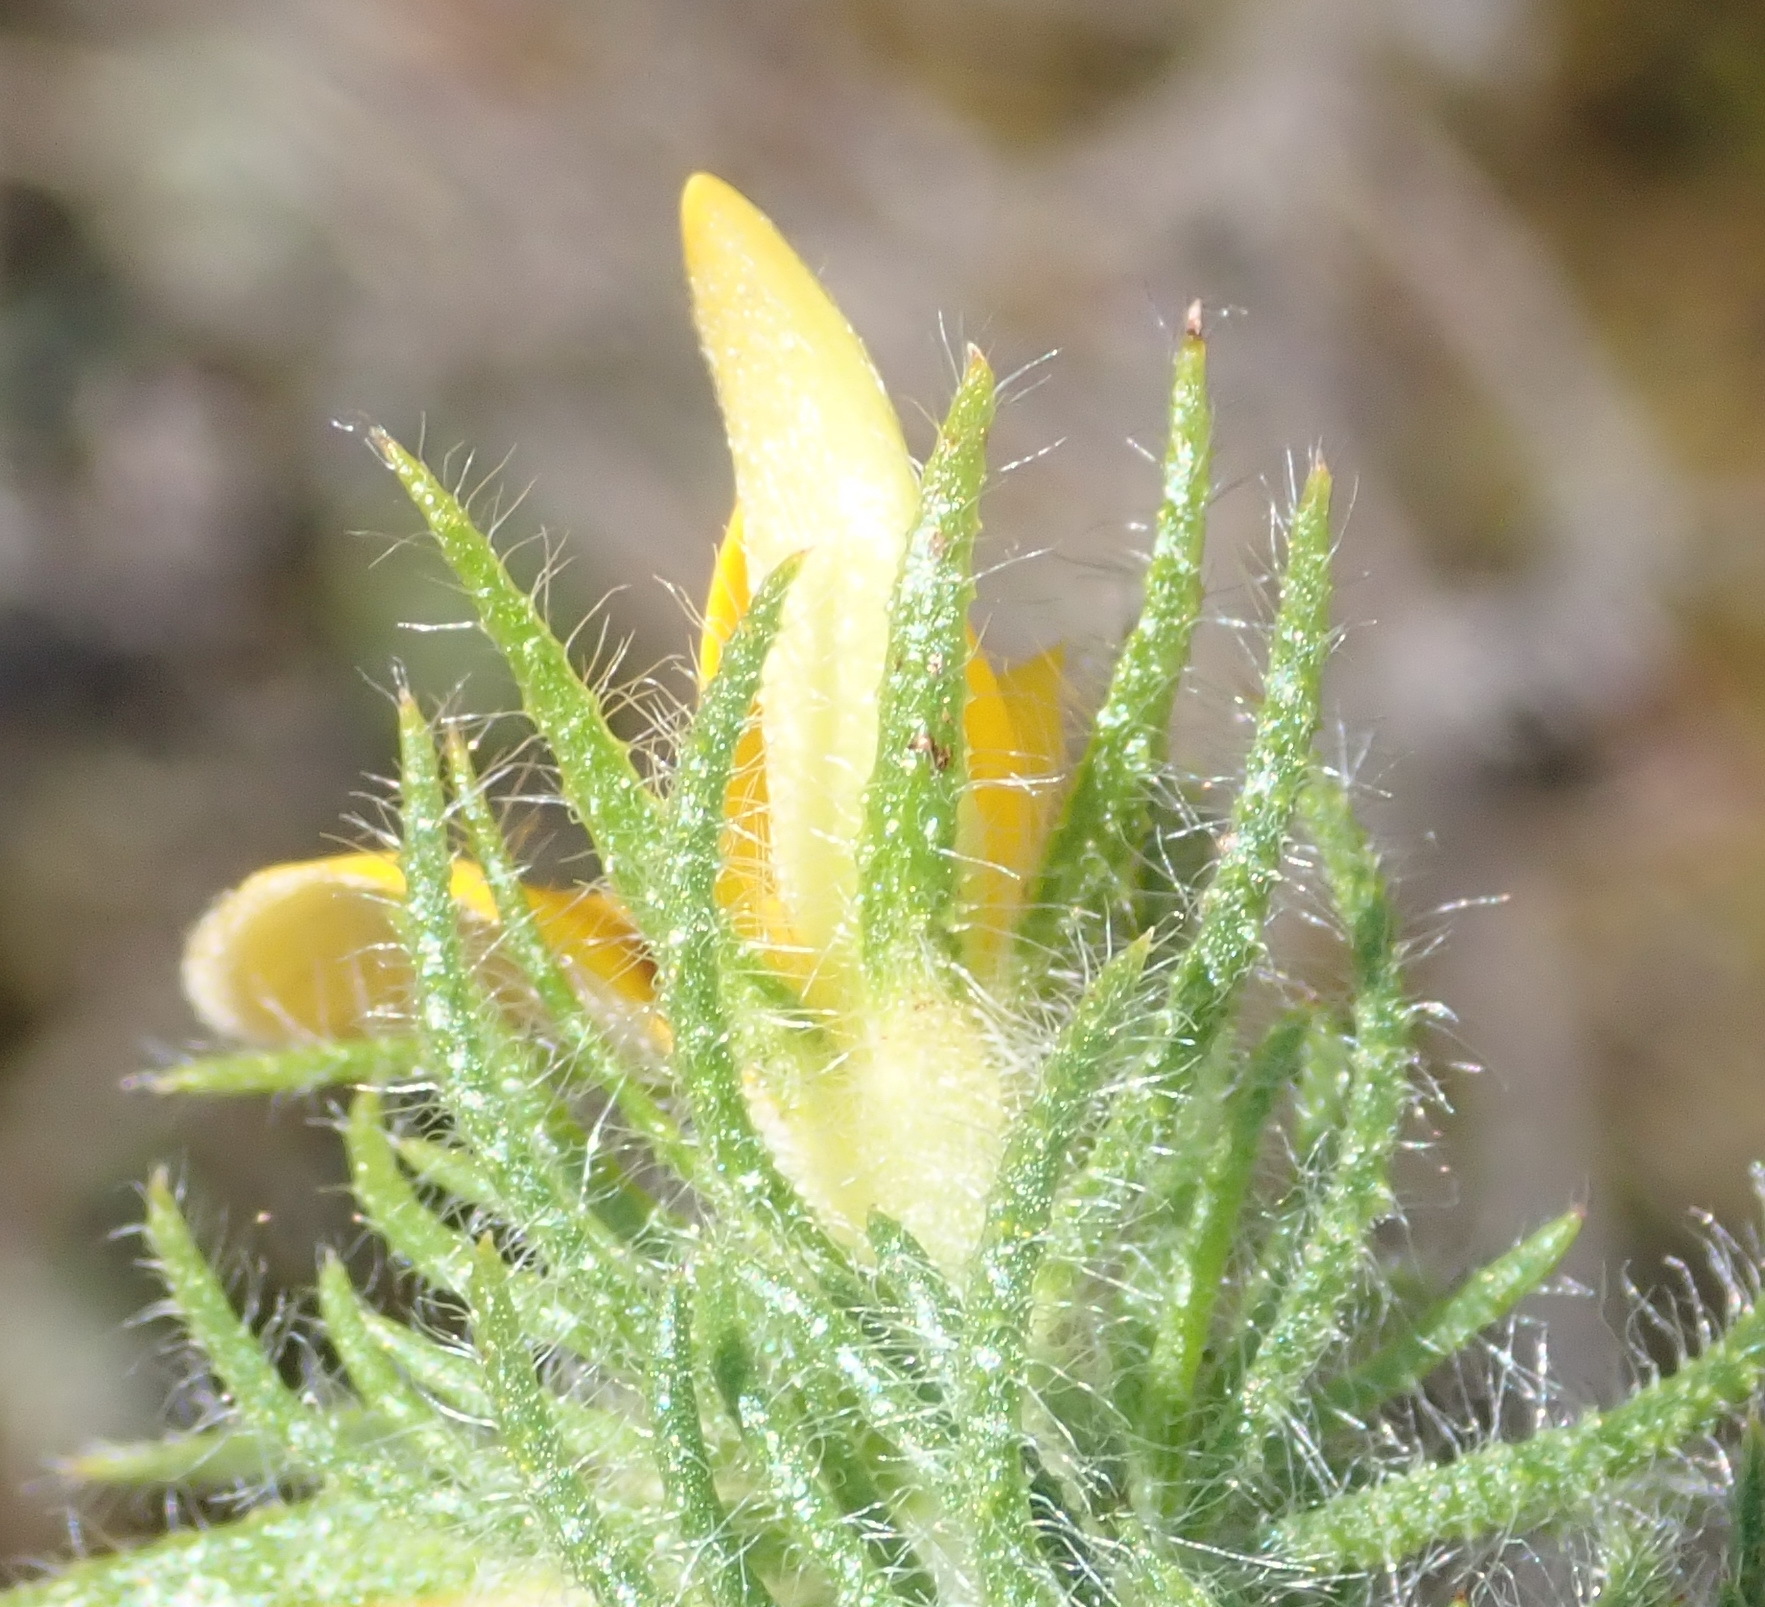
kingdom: Plantae
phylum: Tracheophyta
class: Magnoliopsida
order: Fabales
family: Fabaceae
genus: Aspalathus
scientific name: Aspalathus asparagoides
